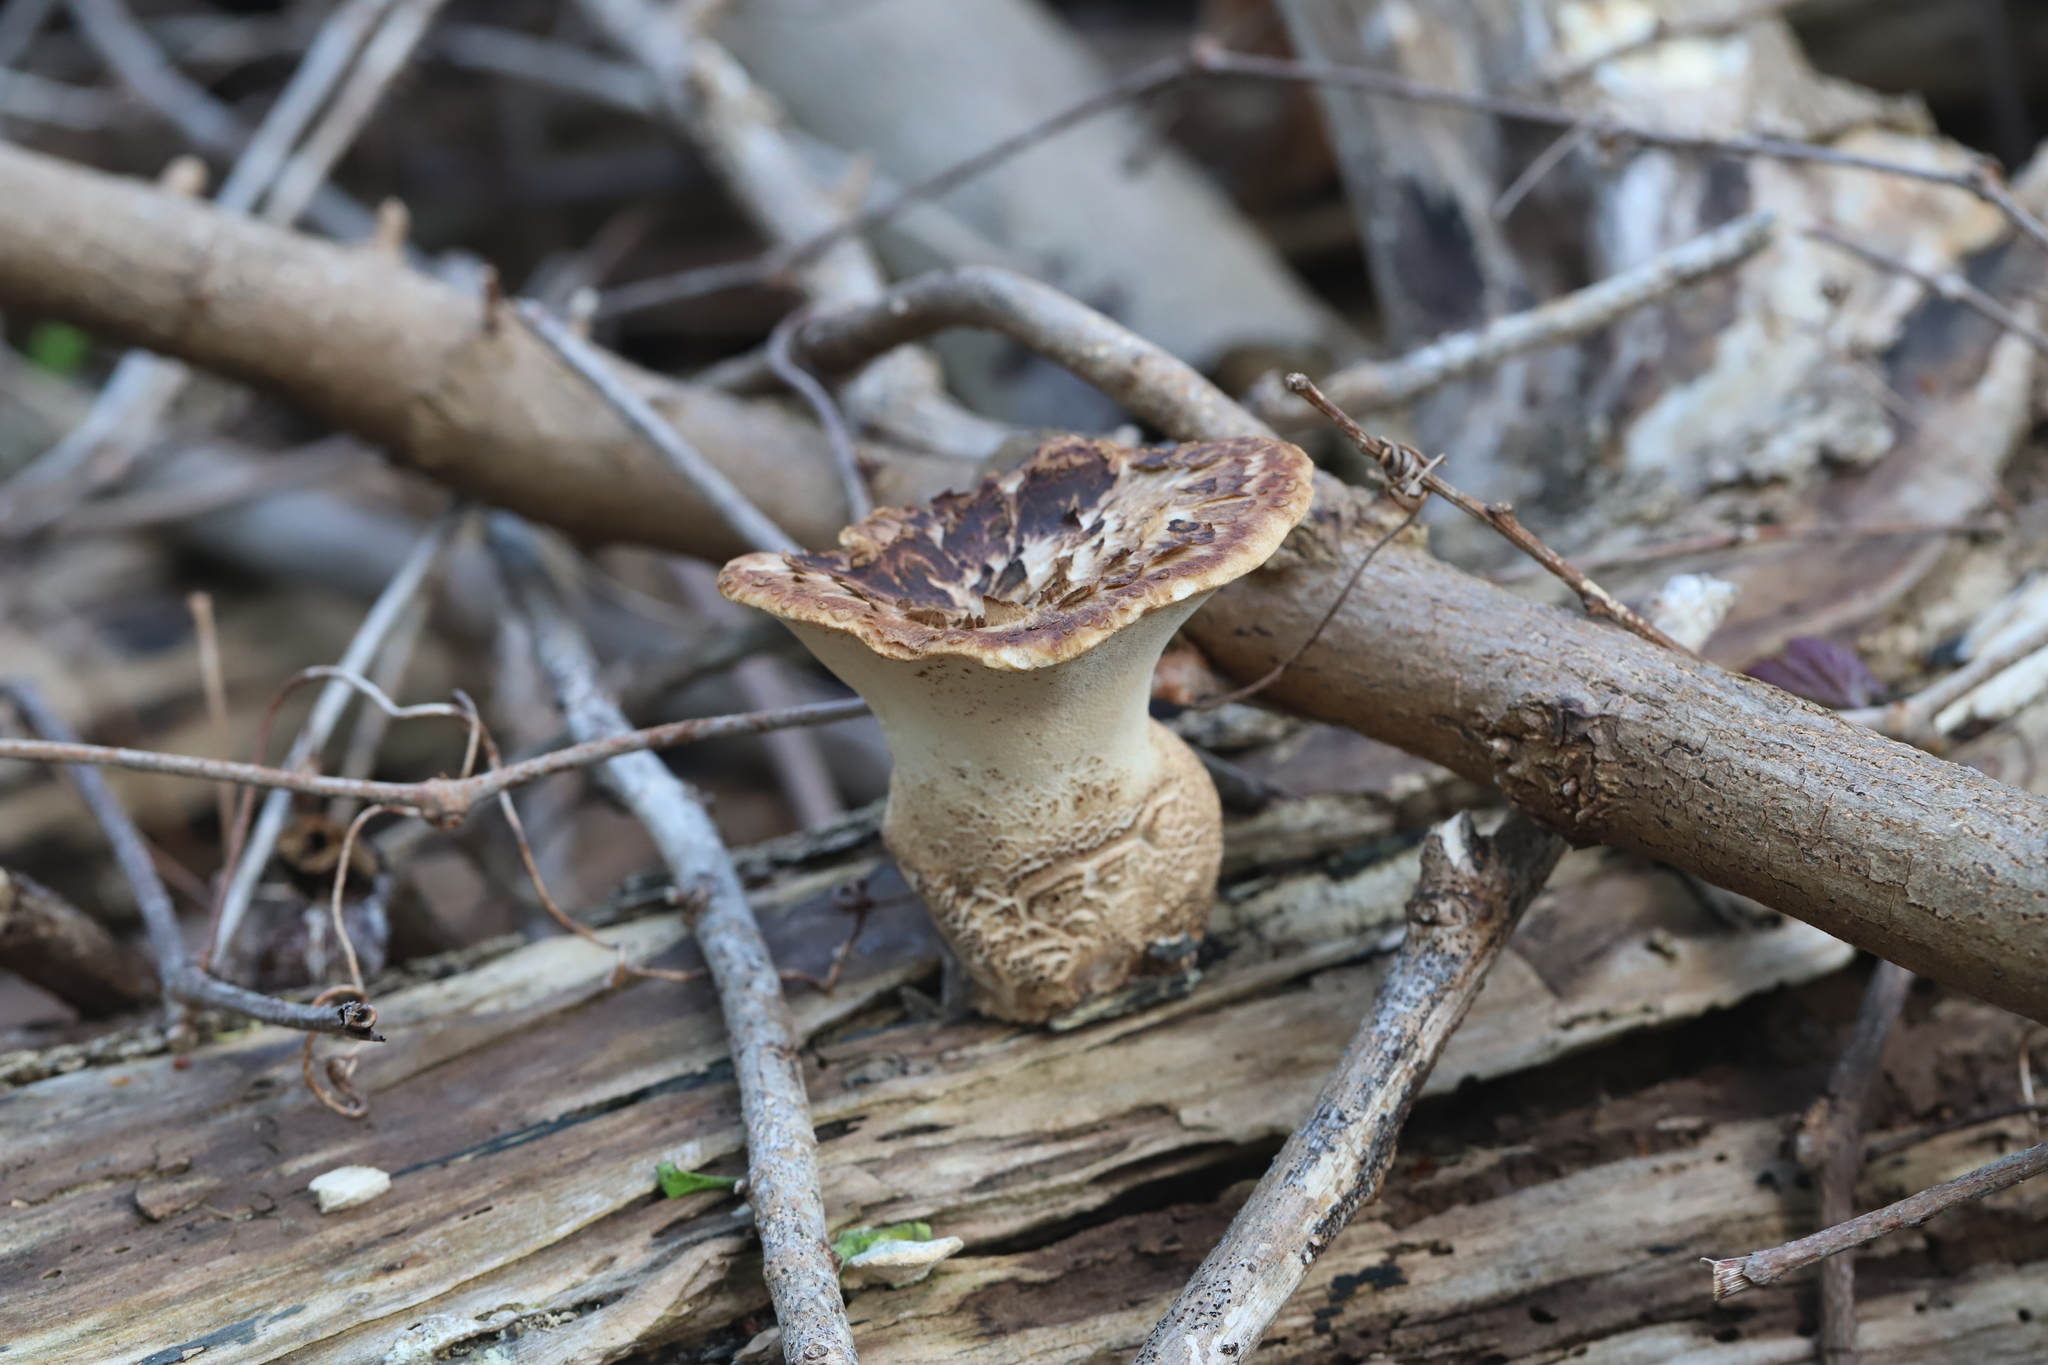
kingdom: Fungi
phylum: Basidiomycota
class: Agaricomycetes
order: Polyporales
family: Polyporaceae
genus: Cerioporus
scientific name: Cerioporus squamosus
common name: Dryad's saddle
